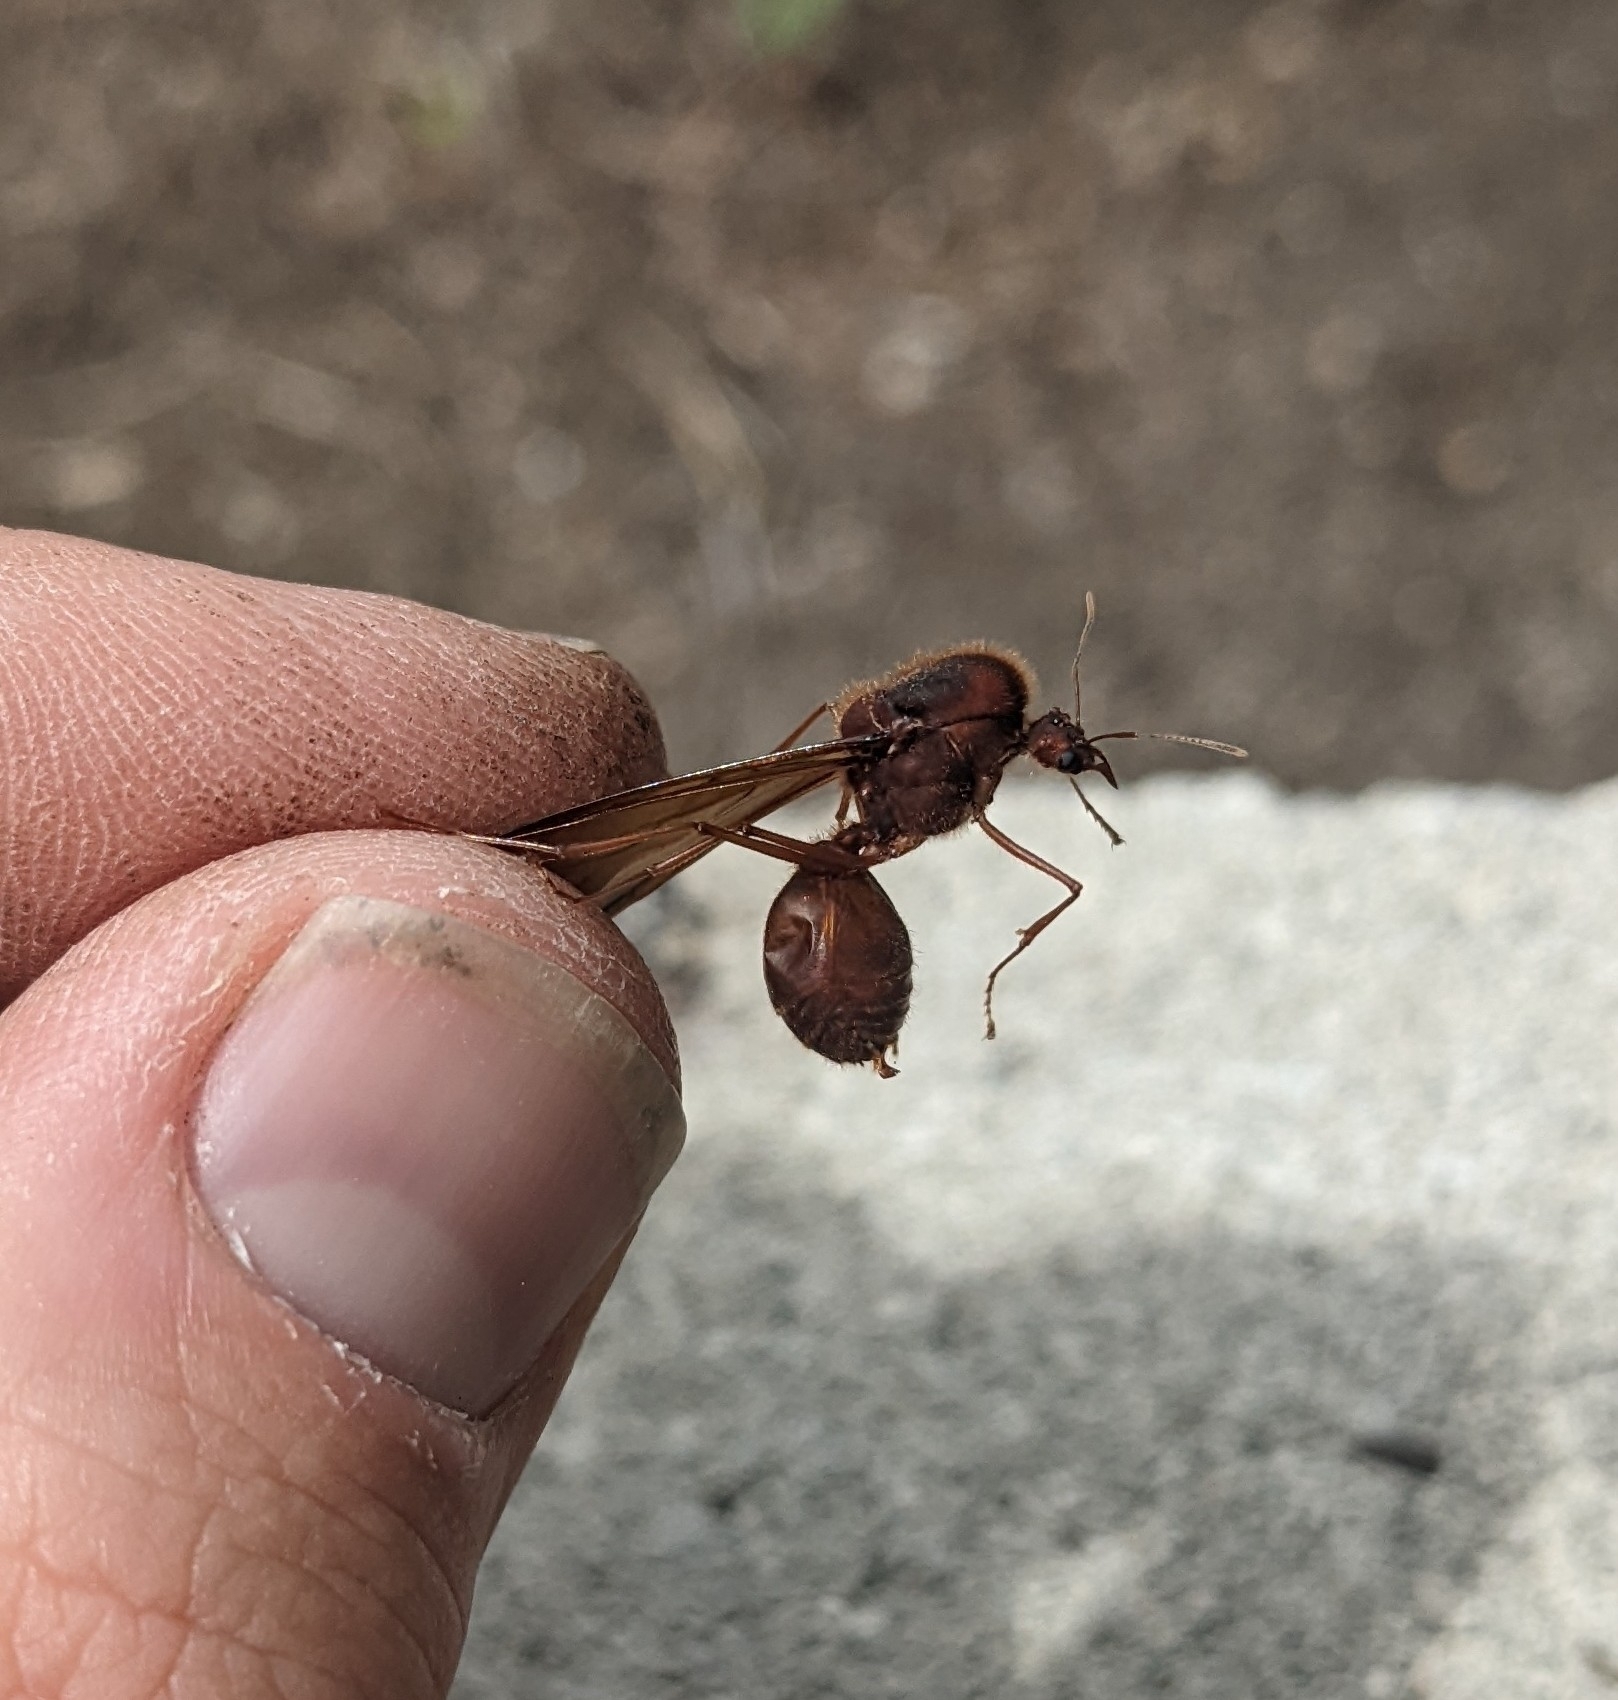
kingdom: Animalia
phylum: Arthropoda
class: Insecta
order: Hymenoptera
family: Formicidae
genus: Atta
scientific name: Atta texana
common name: Texas leafcutting ant
